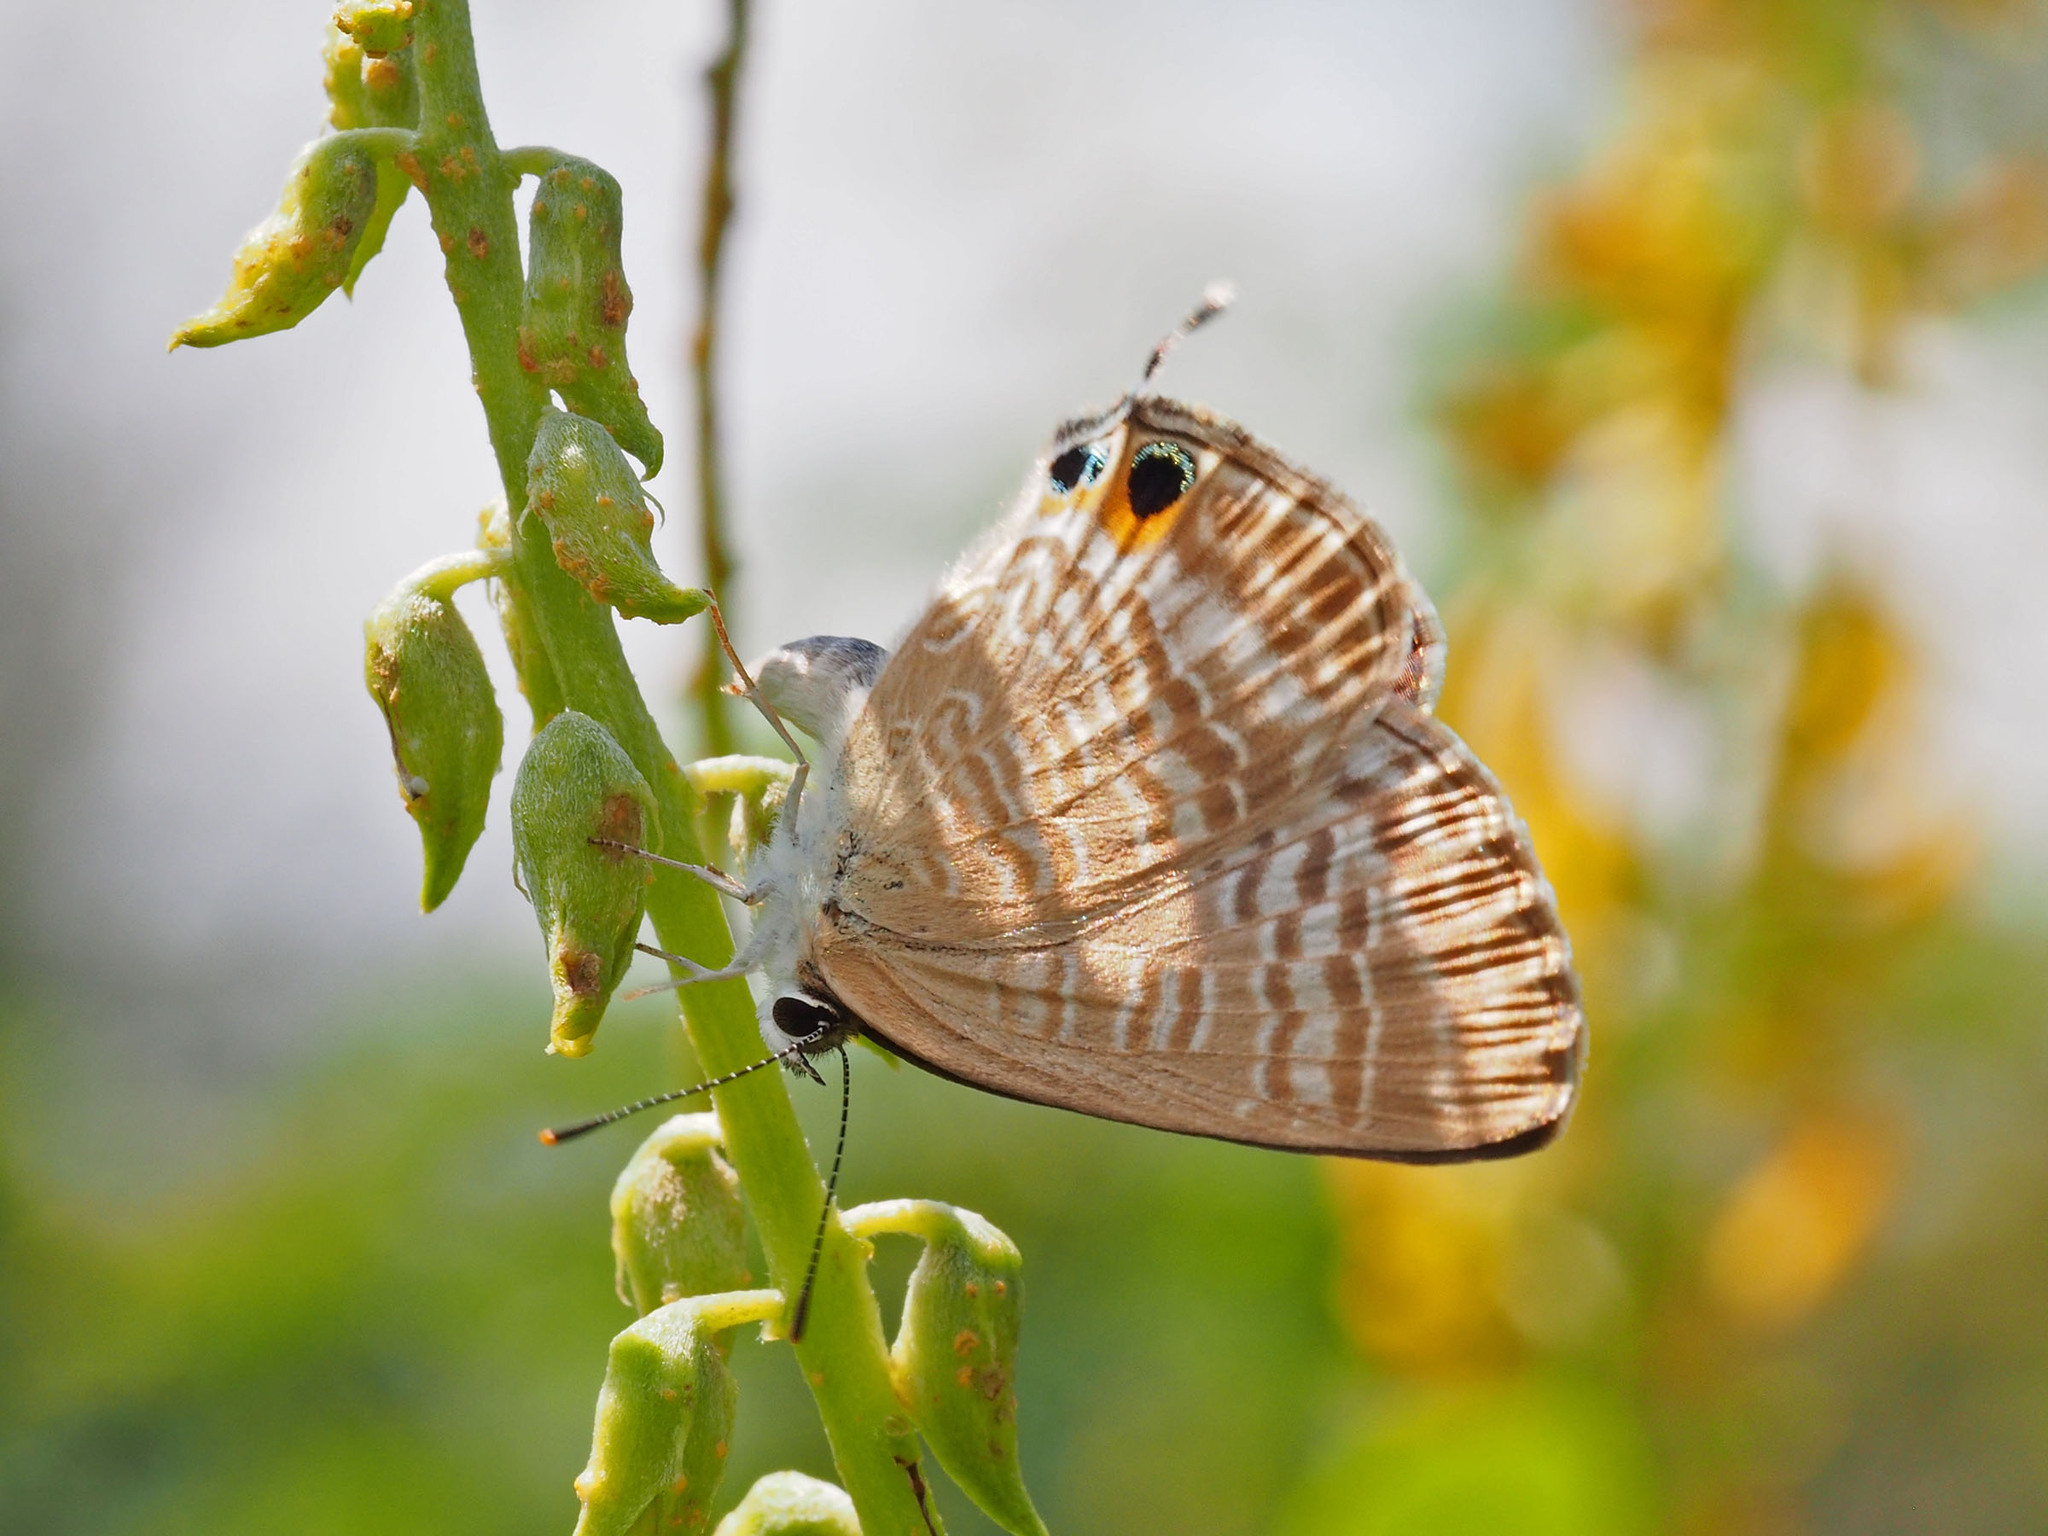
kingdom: Animalia
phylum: Arthropoda
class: Insecta
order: Lepidoptera
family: Lycaenidae
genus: Lampides
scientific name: Lampides boeticus
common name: Long-tailed blue
